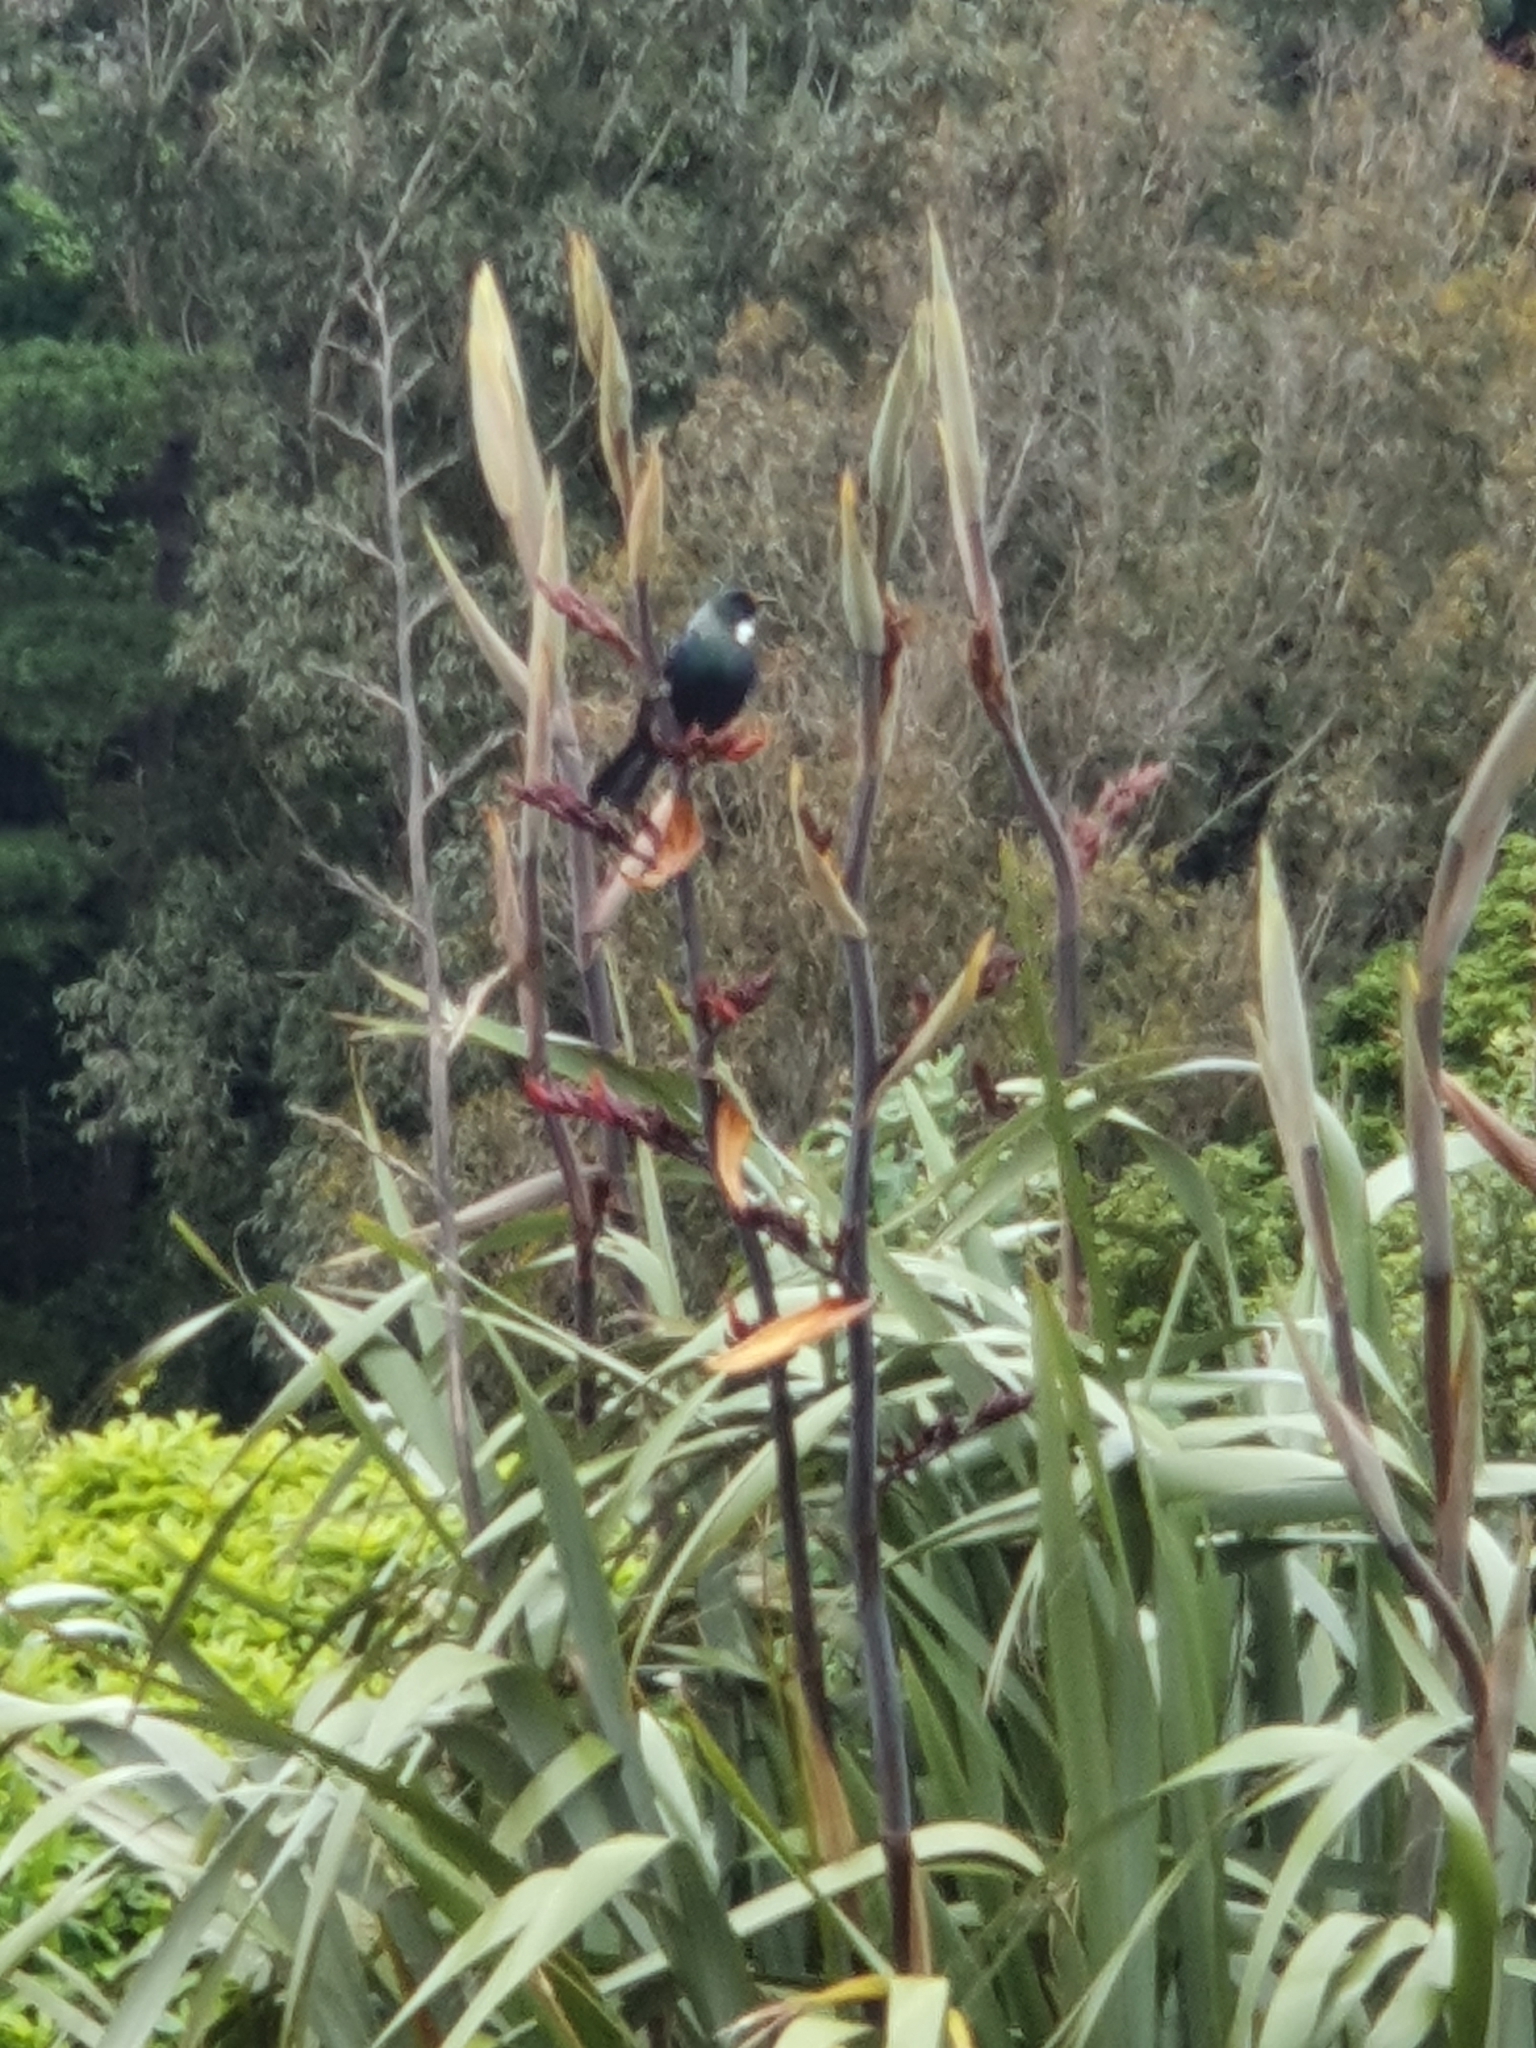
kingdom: Animalia
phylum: Chordata
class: Aves
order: Passeriformes
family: Meliphagidae
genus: Prosthemadera
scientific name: Prosthemadera novaeseelandiae
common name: Tui
